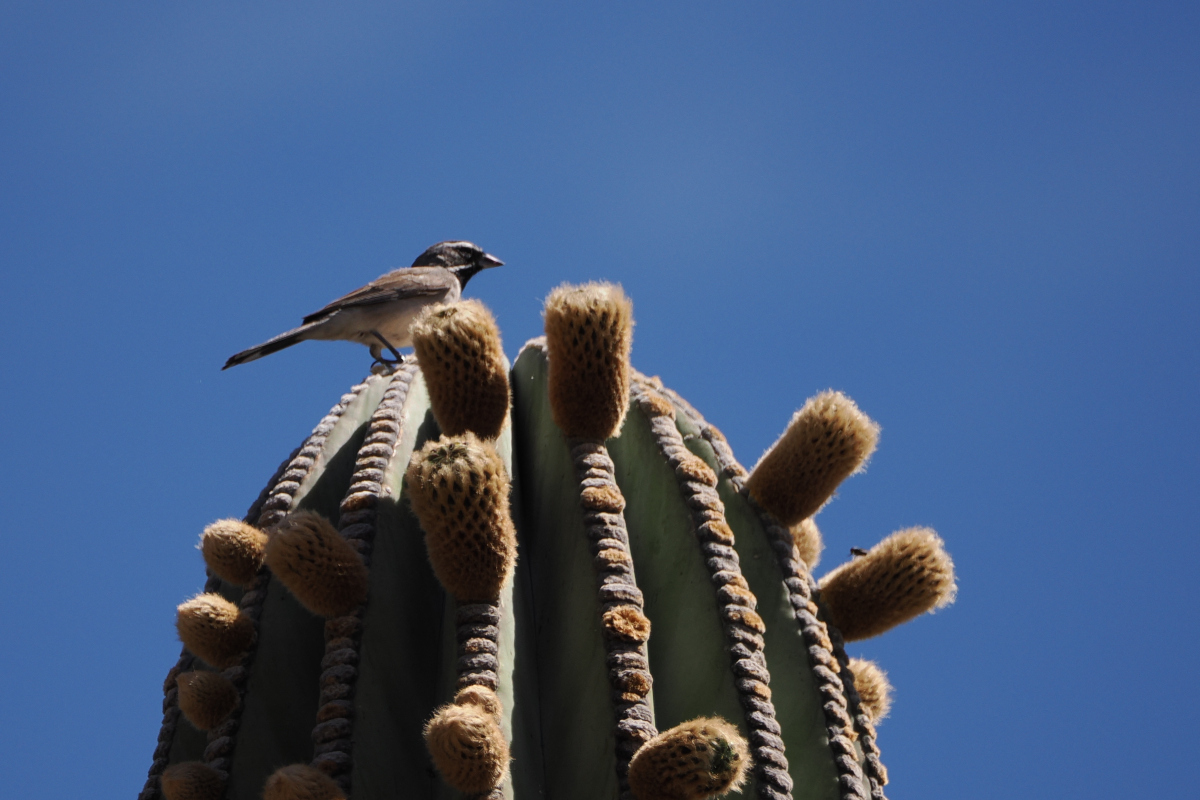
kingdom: Animalia
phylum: Chordata
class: Aves
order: Passeriformes
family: Passerellidae
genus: Amphispiza
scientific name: Amphispiza bilineata
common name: Black-throated sparrow
